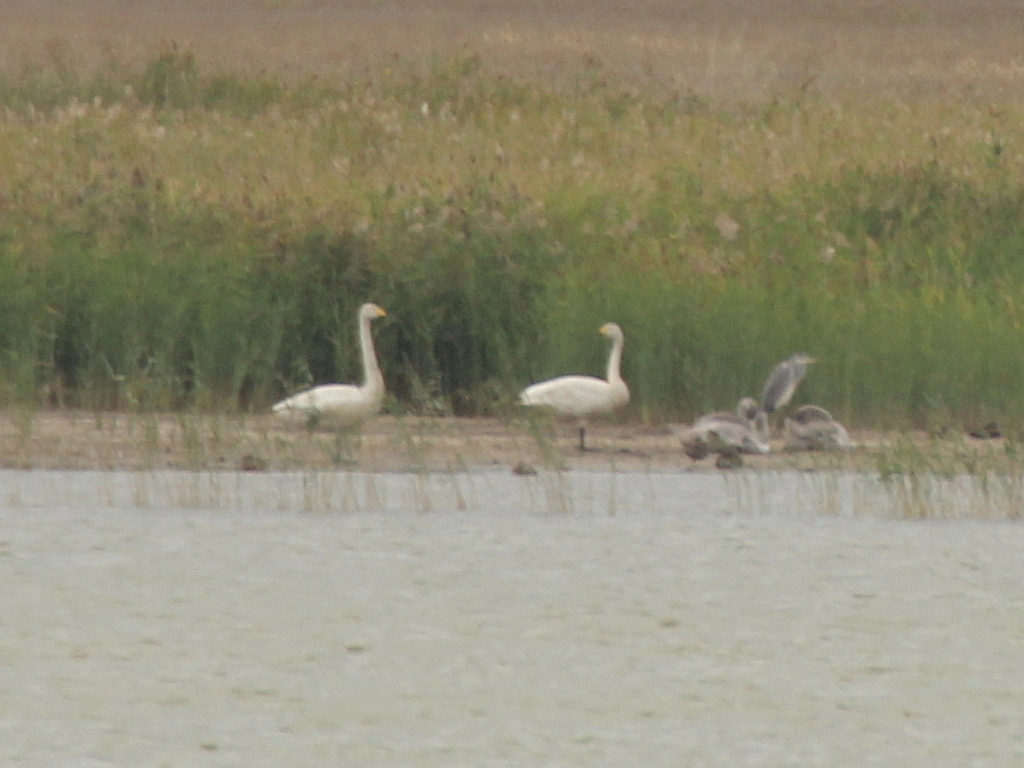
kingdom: Animalia
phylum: Chordata
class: Aves
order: Anseriformes
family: Anatidae
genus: Cygnus
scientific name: Cygnus cygnus
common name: Whooper swan
